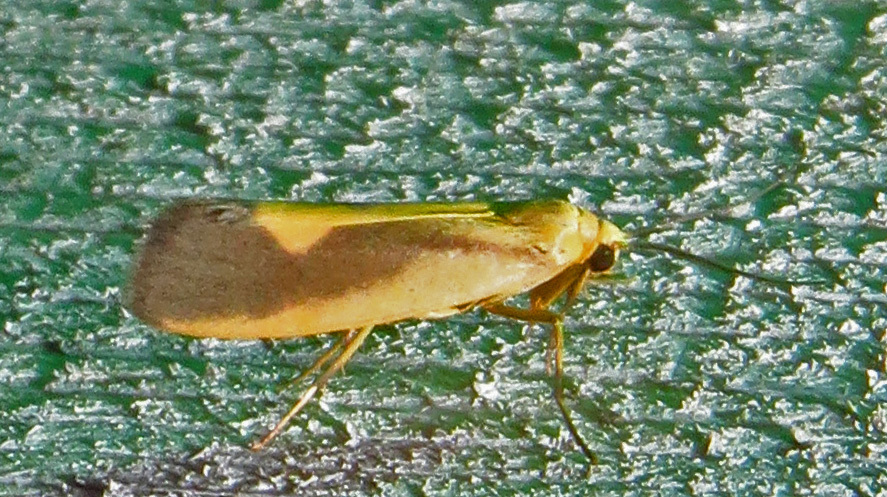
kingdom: Animalia
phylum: Arthropoda
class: Insecta
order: Lepidoptera
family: Erebidae
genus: Cisthene
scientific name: Cisthene plumbea
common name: Lead colored lichen moth
